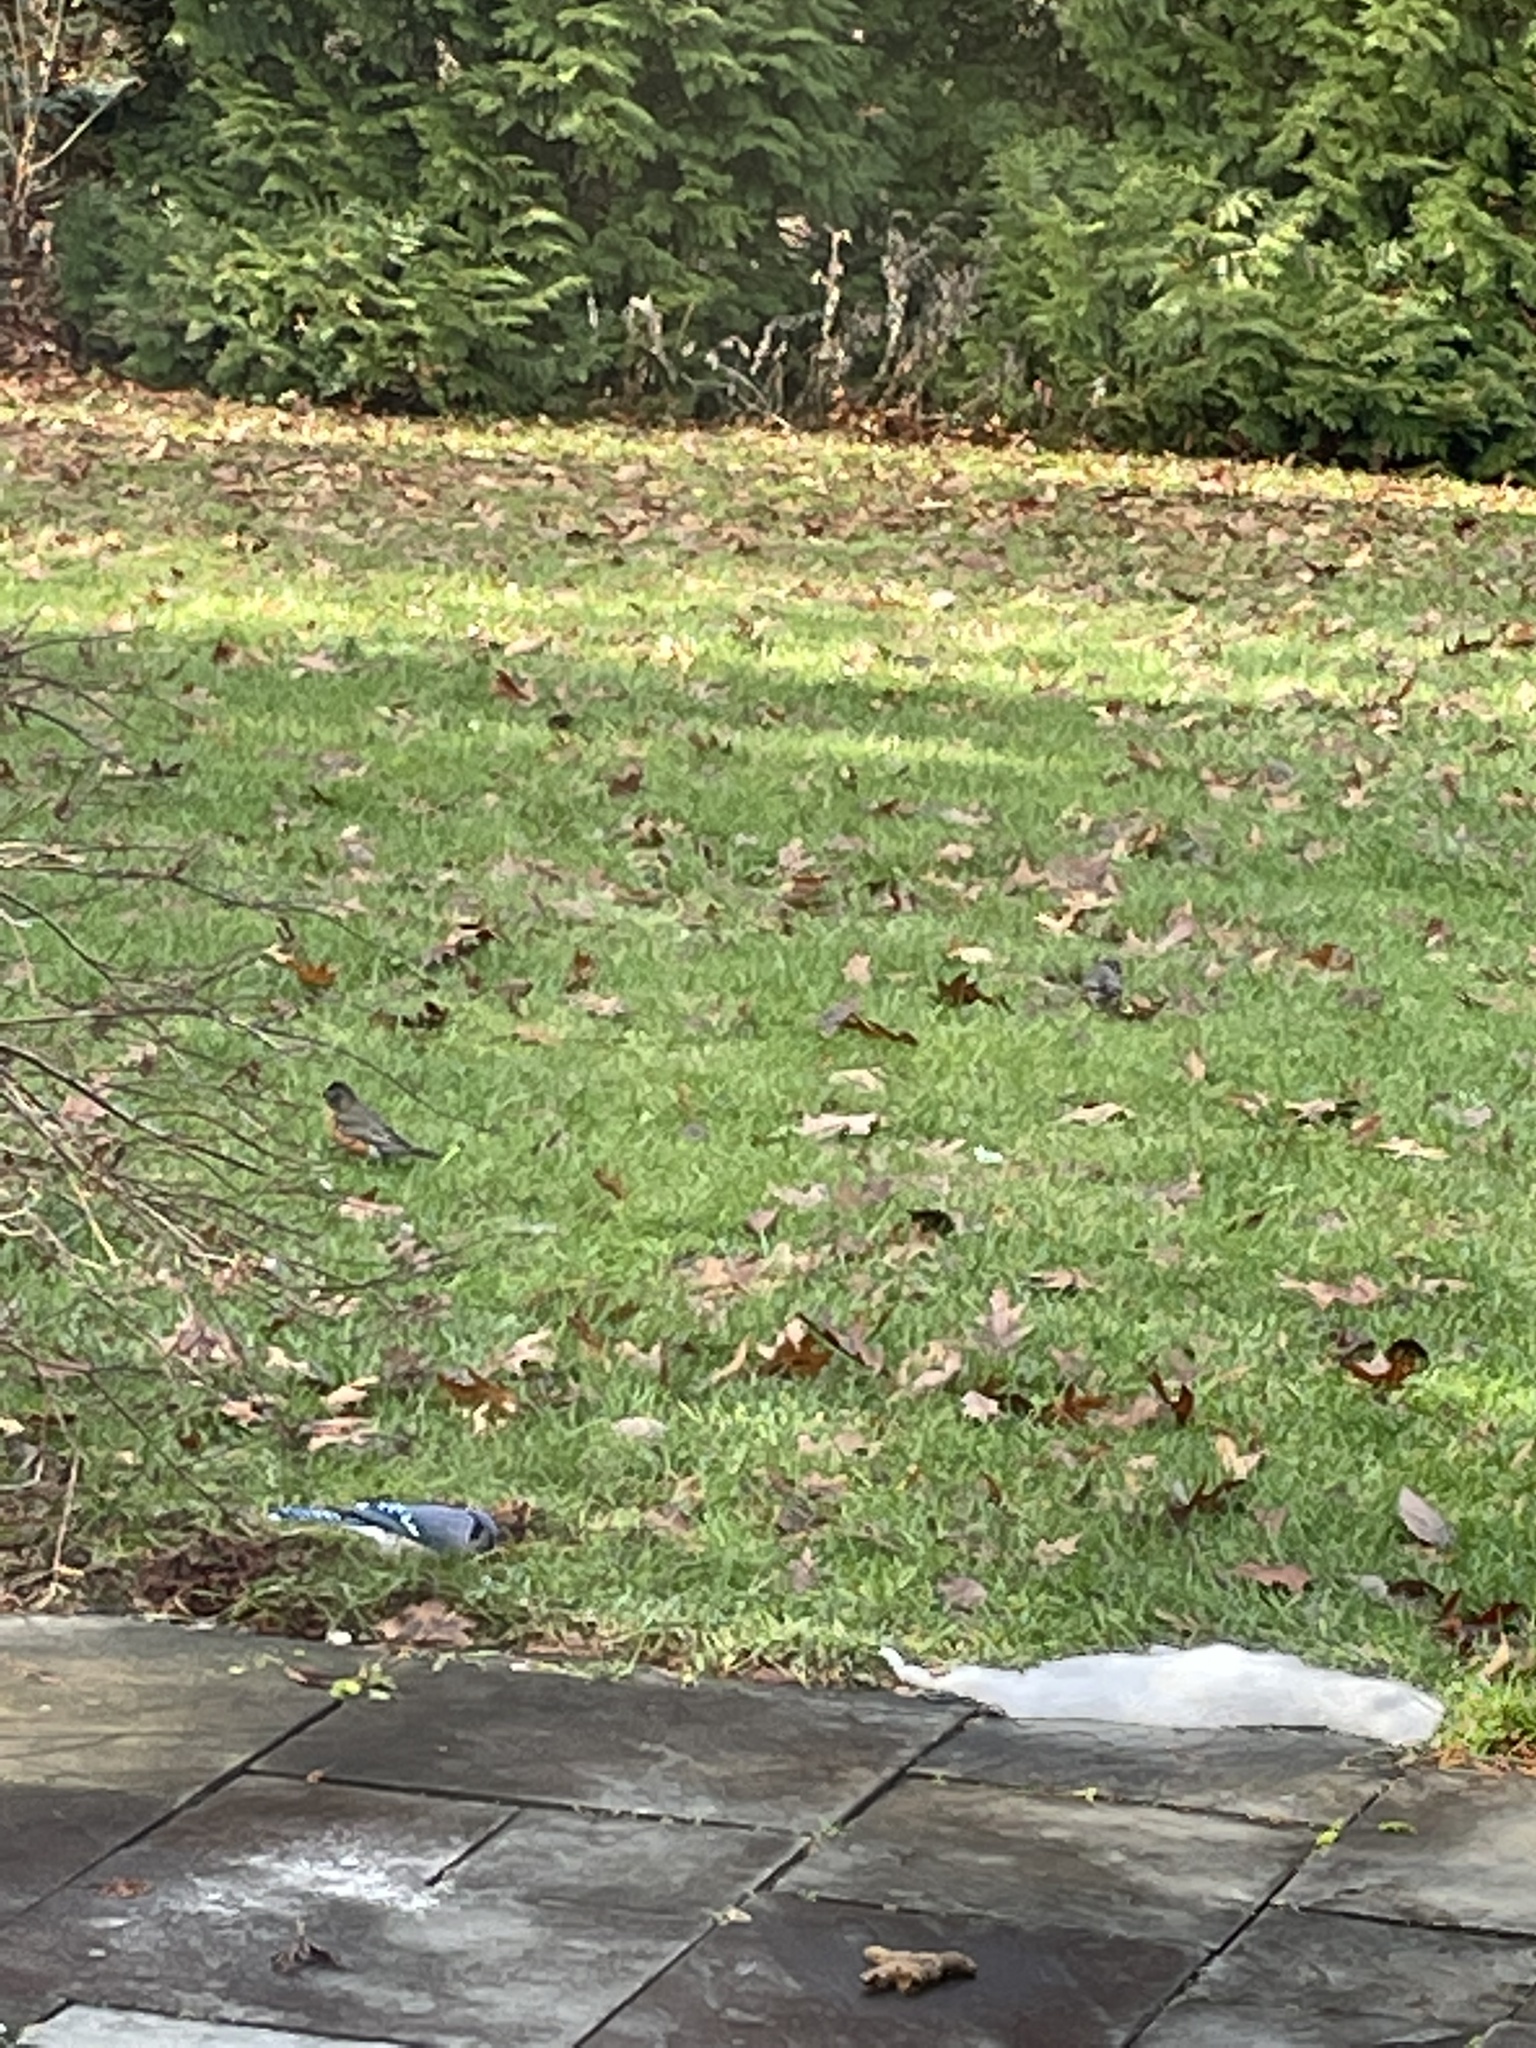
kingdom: Animalia
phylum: Chordata
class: Aves
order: Passeriformes
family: Turdidae
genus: Turdus
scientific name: Turdus migratorius
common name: American robin
